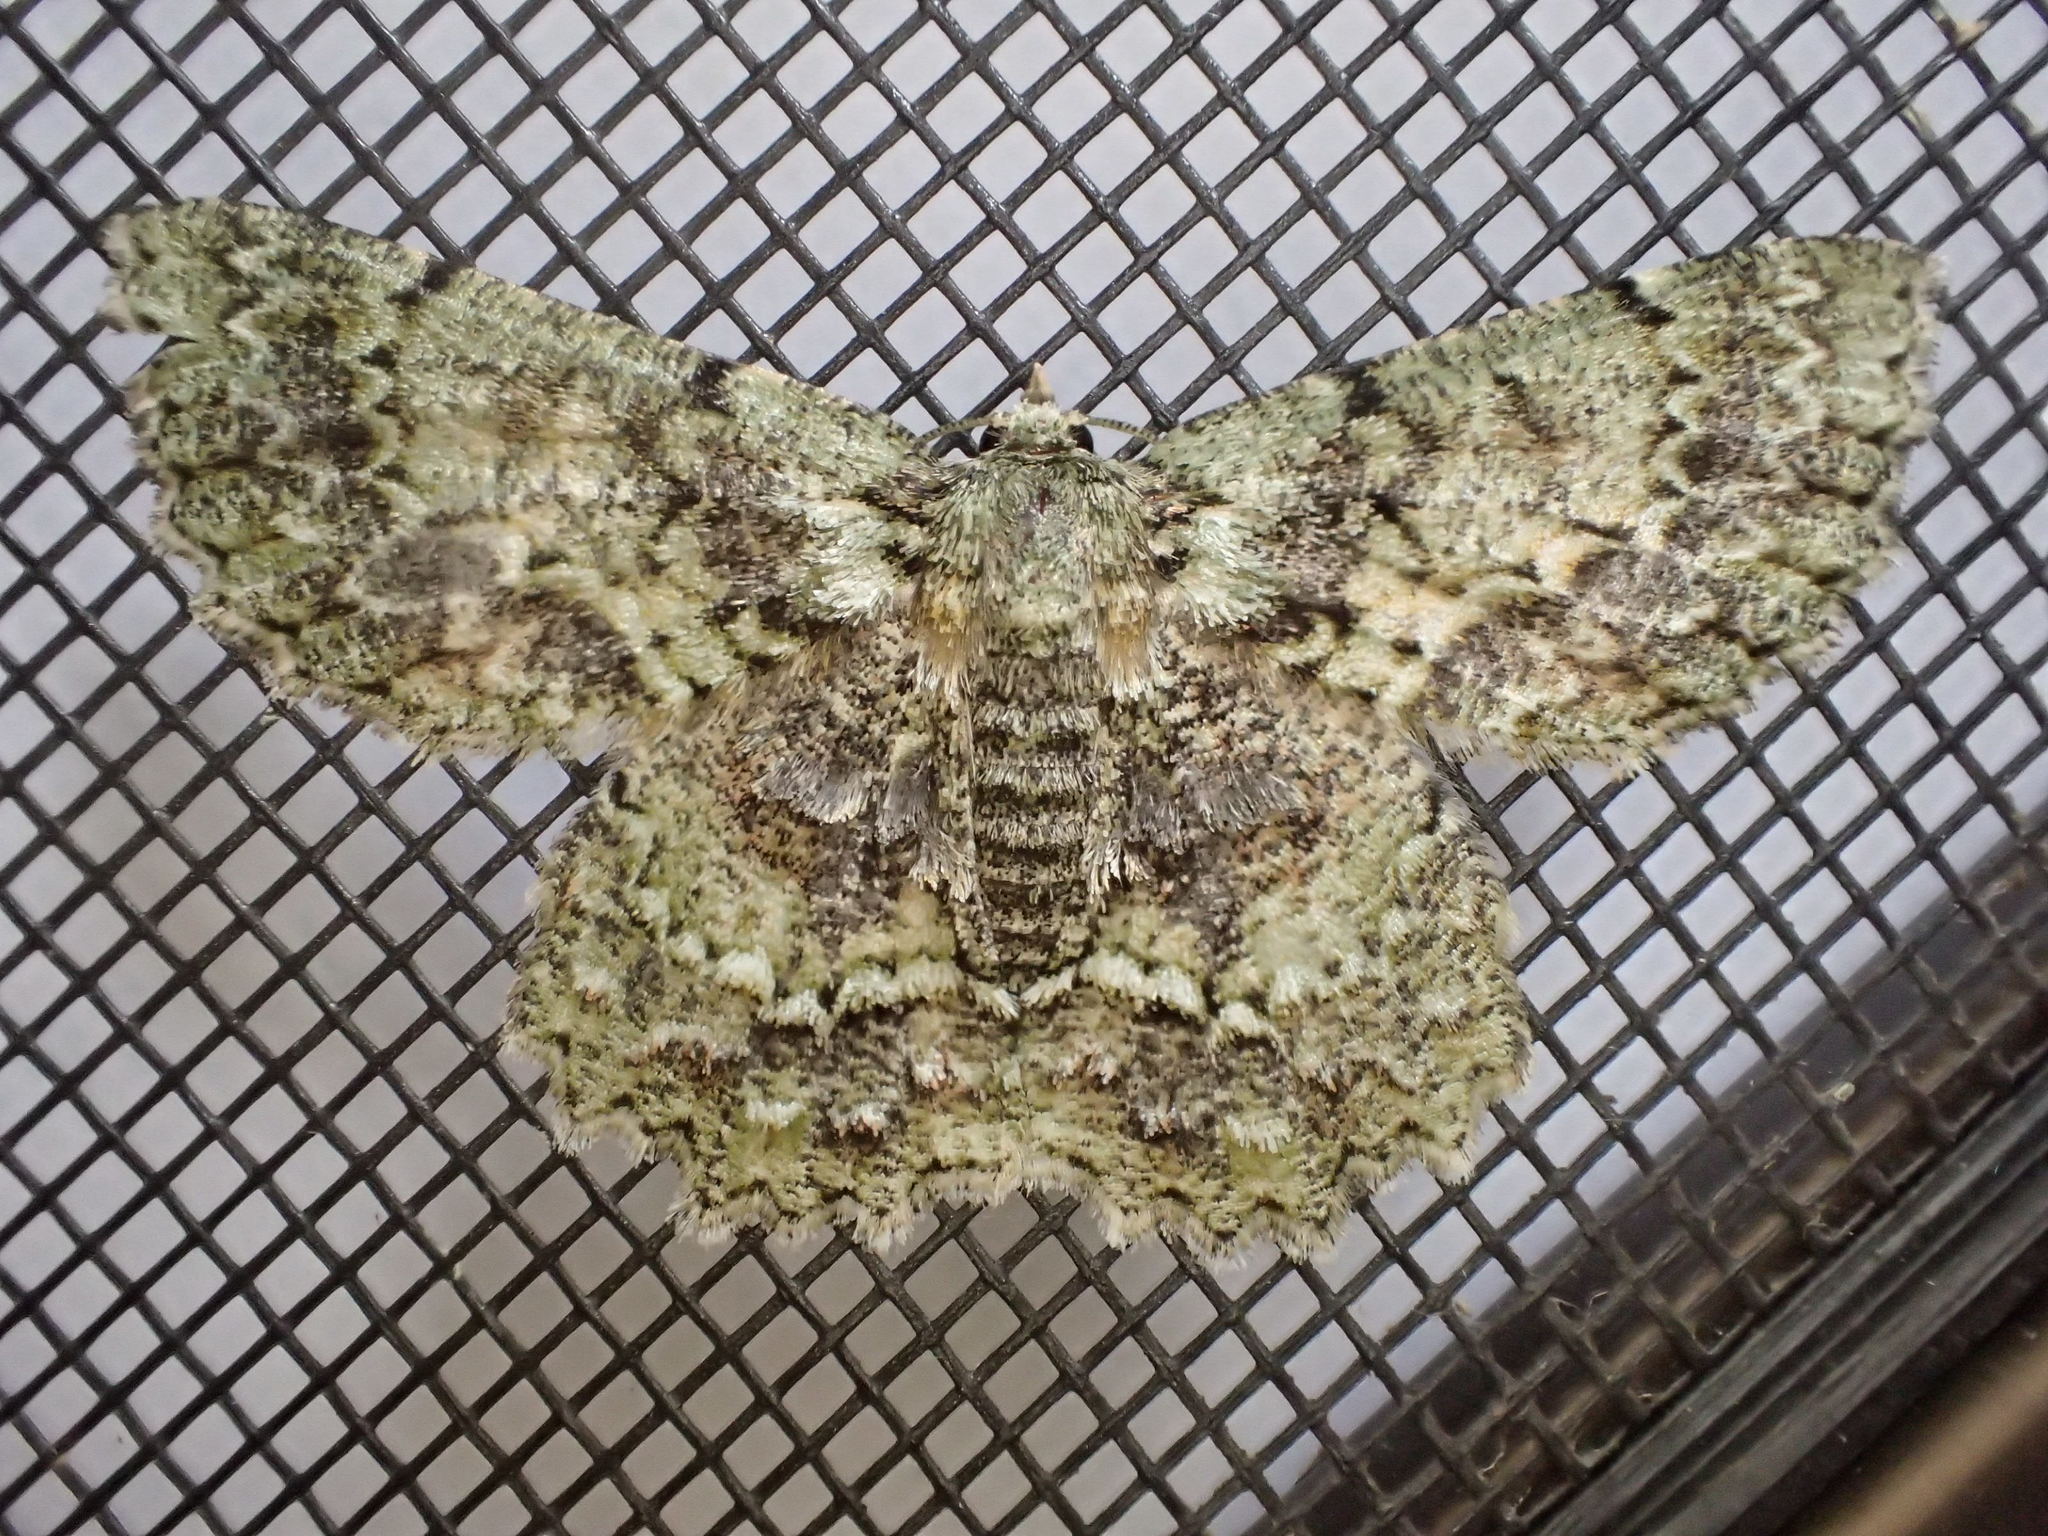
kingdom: Animalia
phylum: Arthropoda
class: Insecta
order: Lepidoptera
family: Geometridae
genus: Hypodoxa
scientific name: Hypodoxa muscosaria
